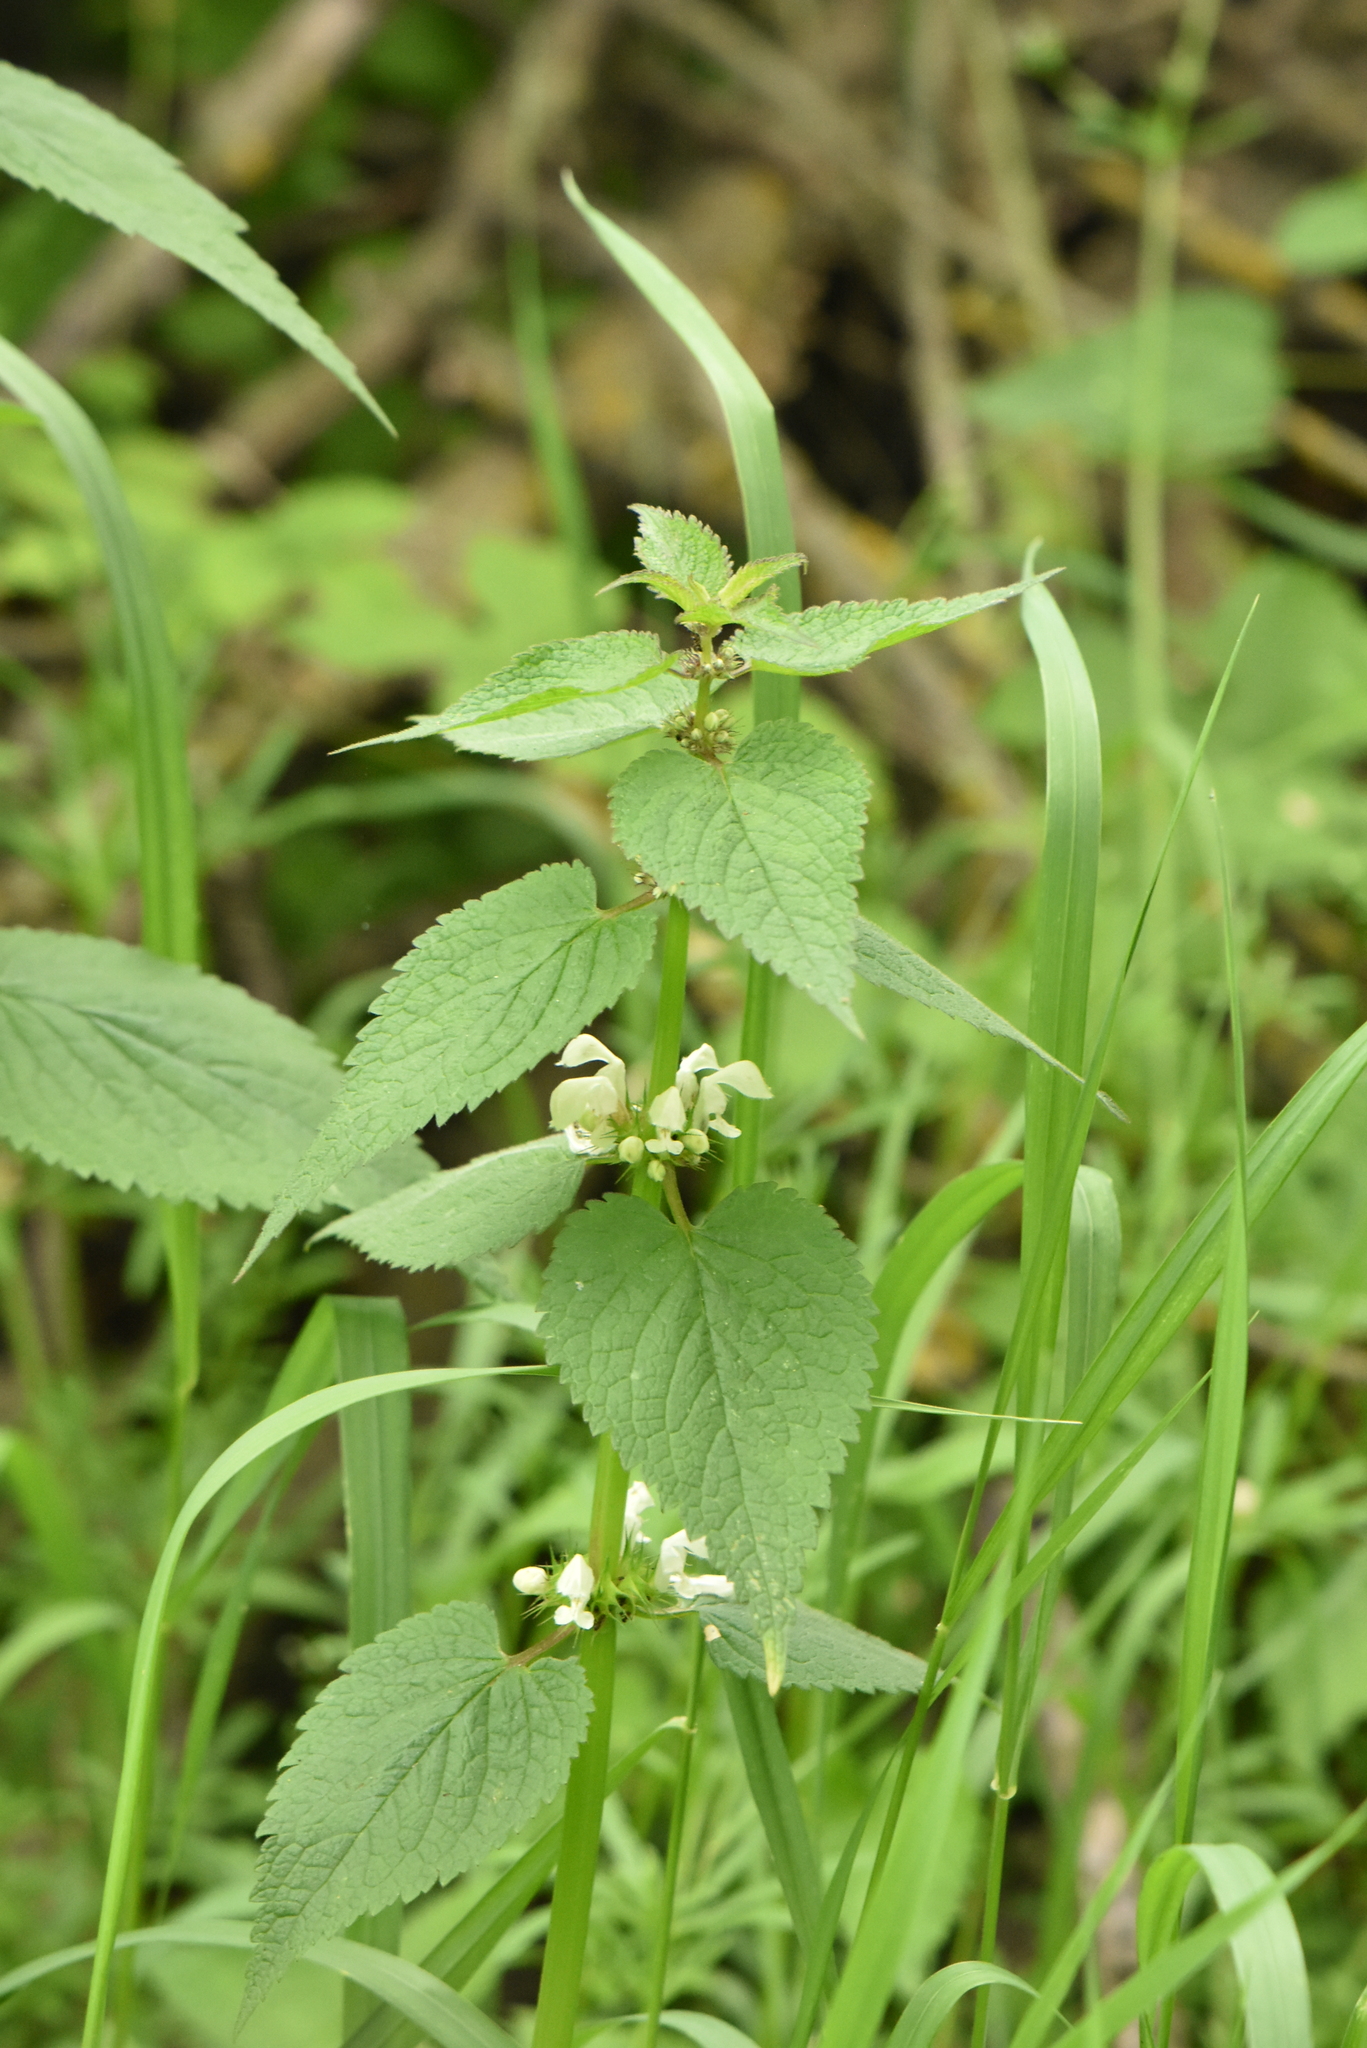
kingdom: Plantae
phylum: Tracheophyta
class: Magnoliopsida
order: Lamiales
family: Lamiaceae
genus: Lamium
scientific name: Lamium album
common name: White dead-nettle
